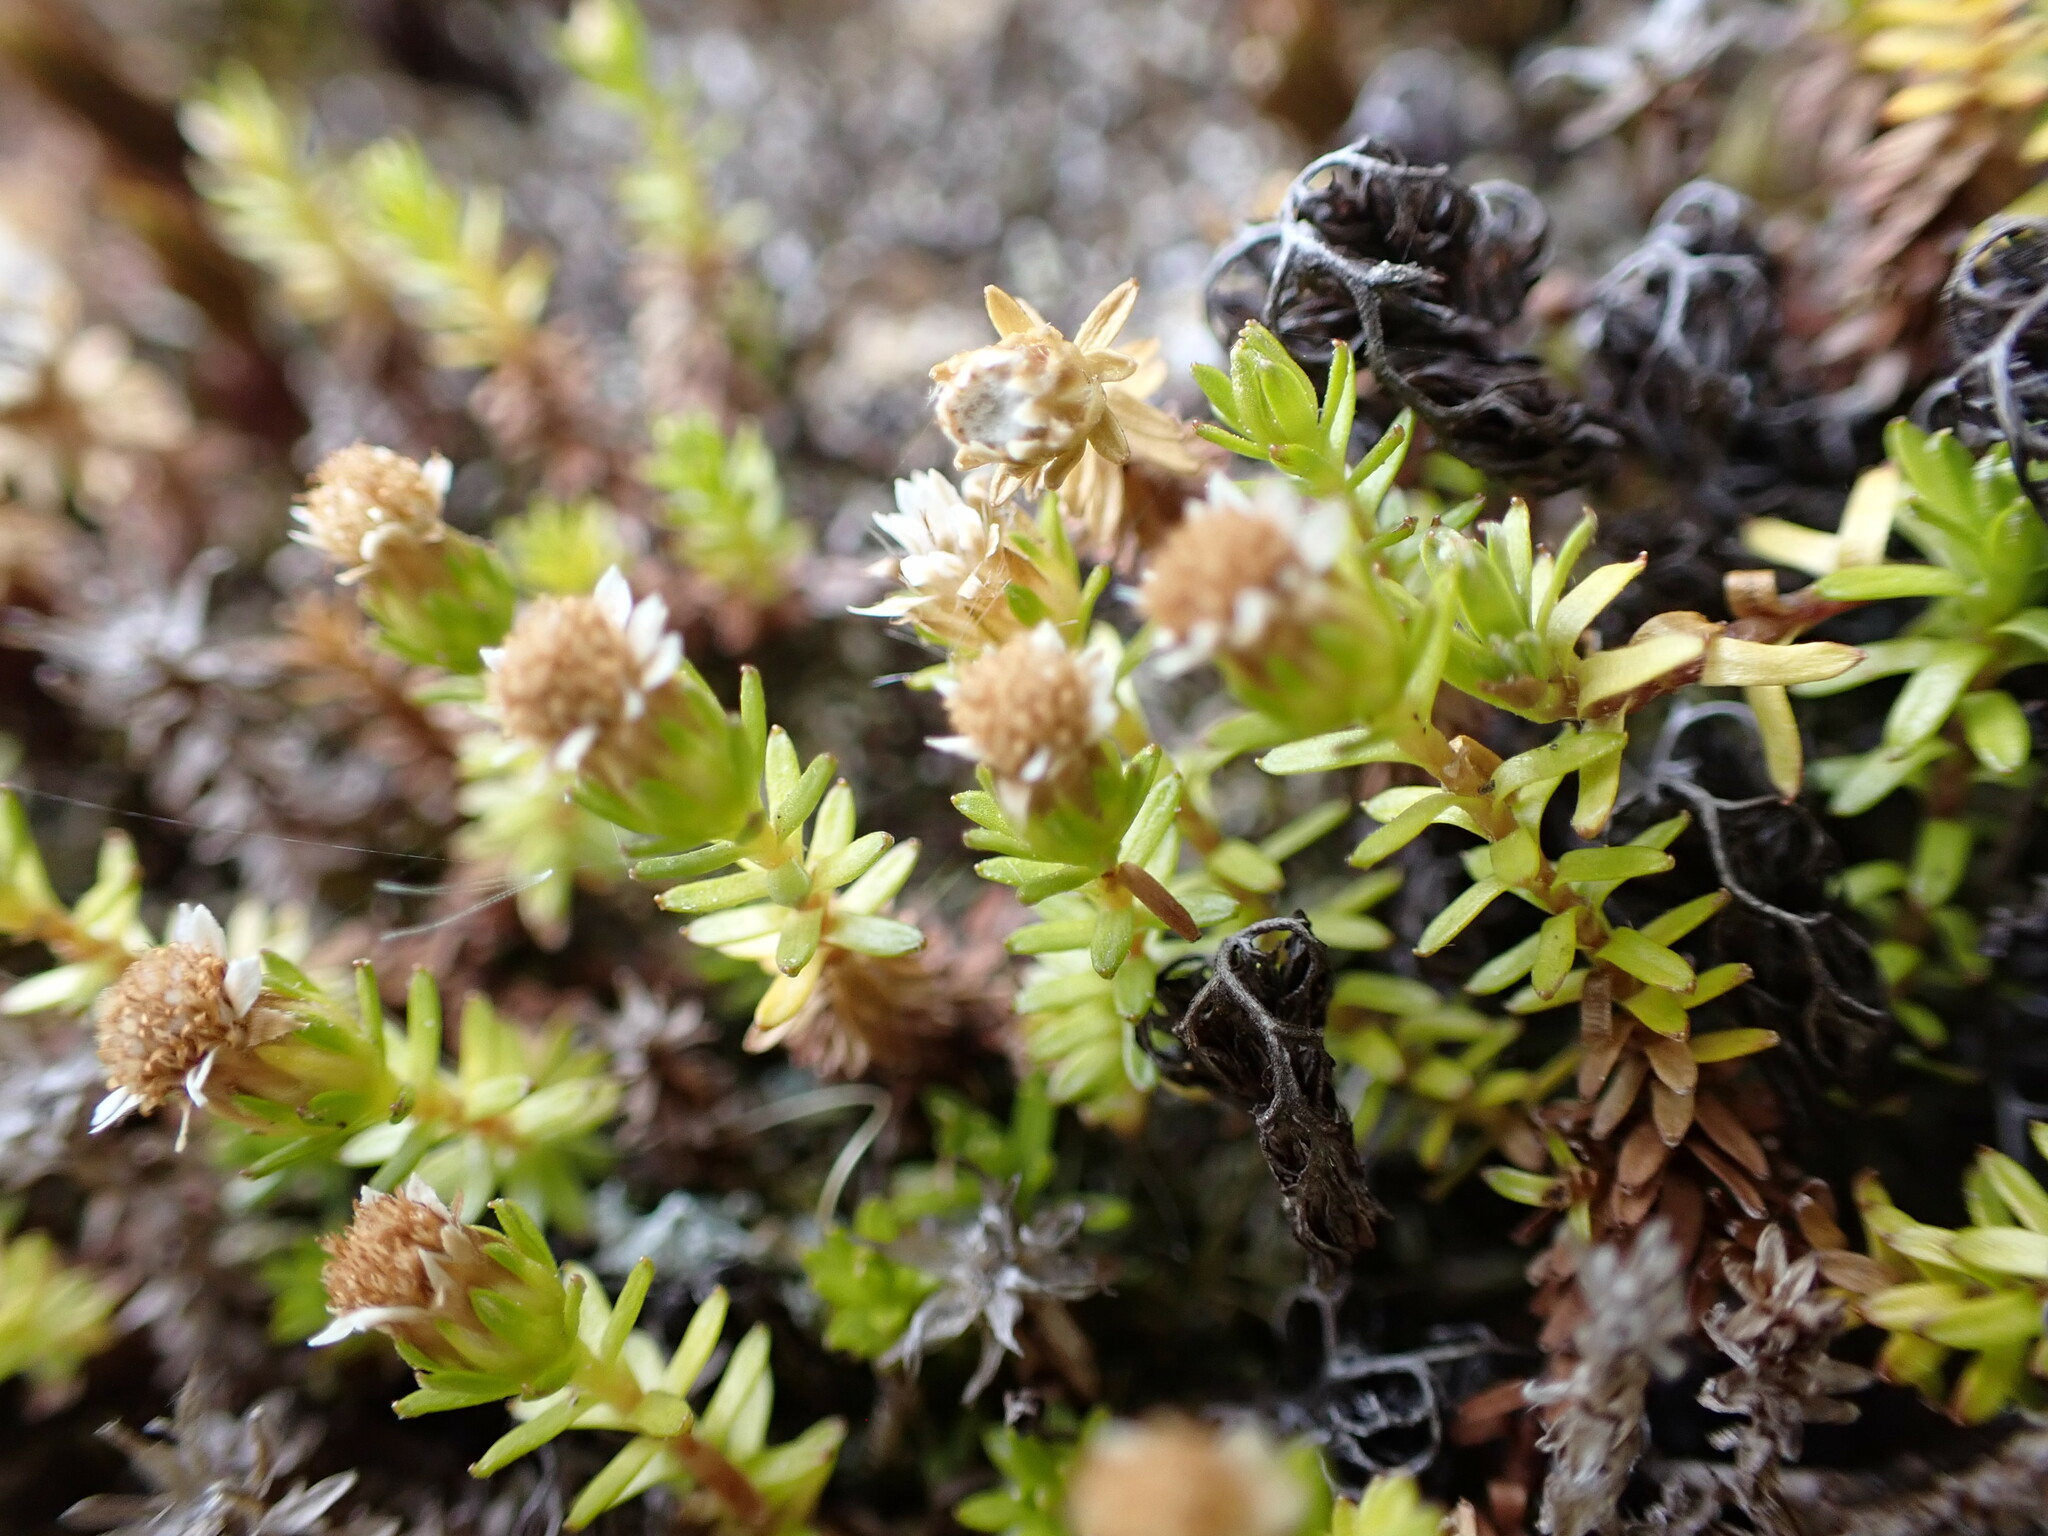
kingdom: Plantae
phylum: Tracheophyta
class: Magnoliopsida
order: Asterales
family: Asteraceae
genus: Raoulia
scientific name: Raoulia glabra
